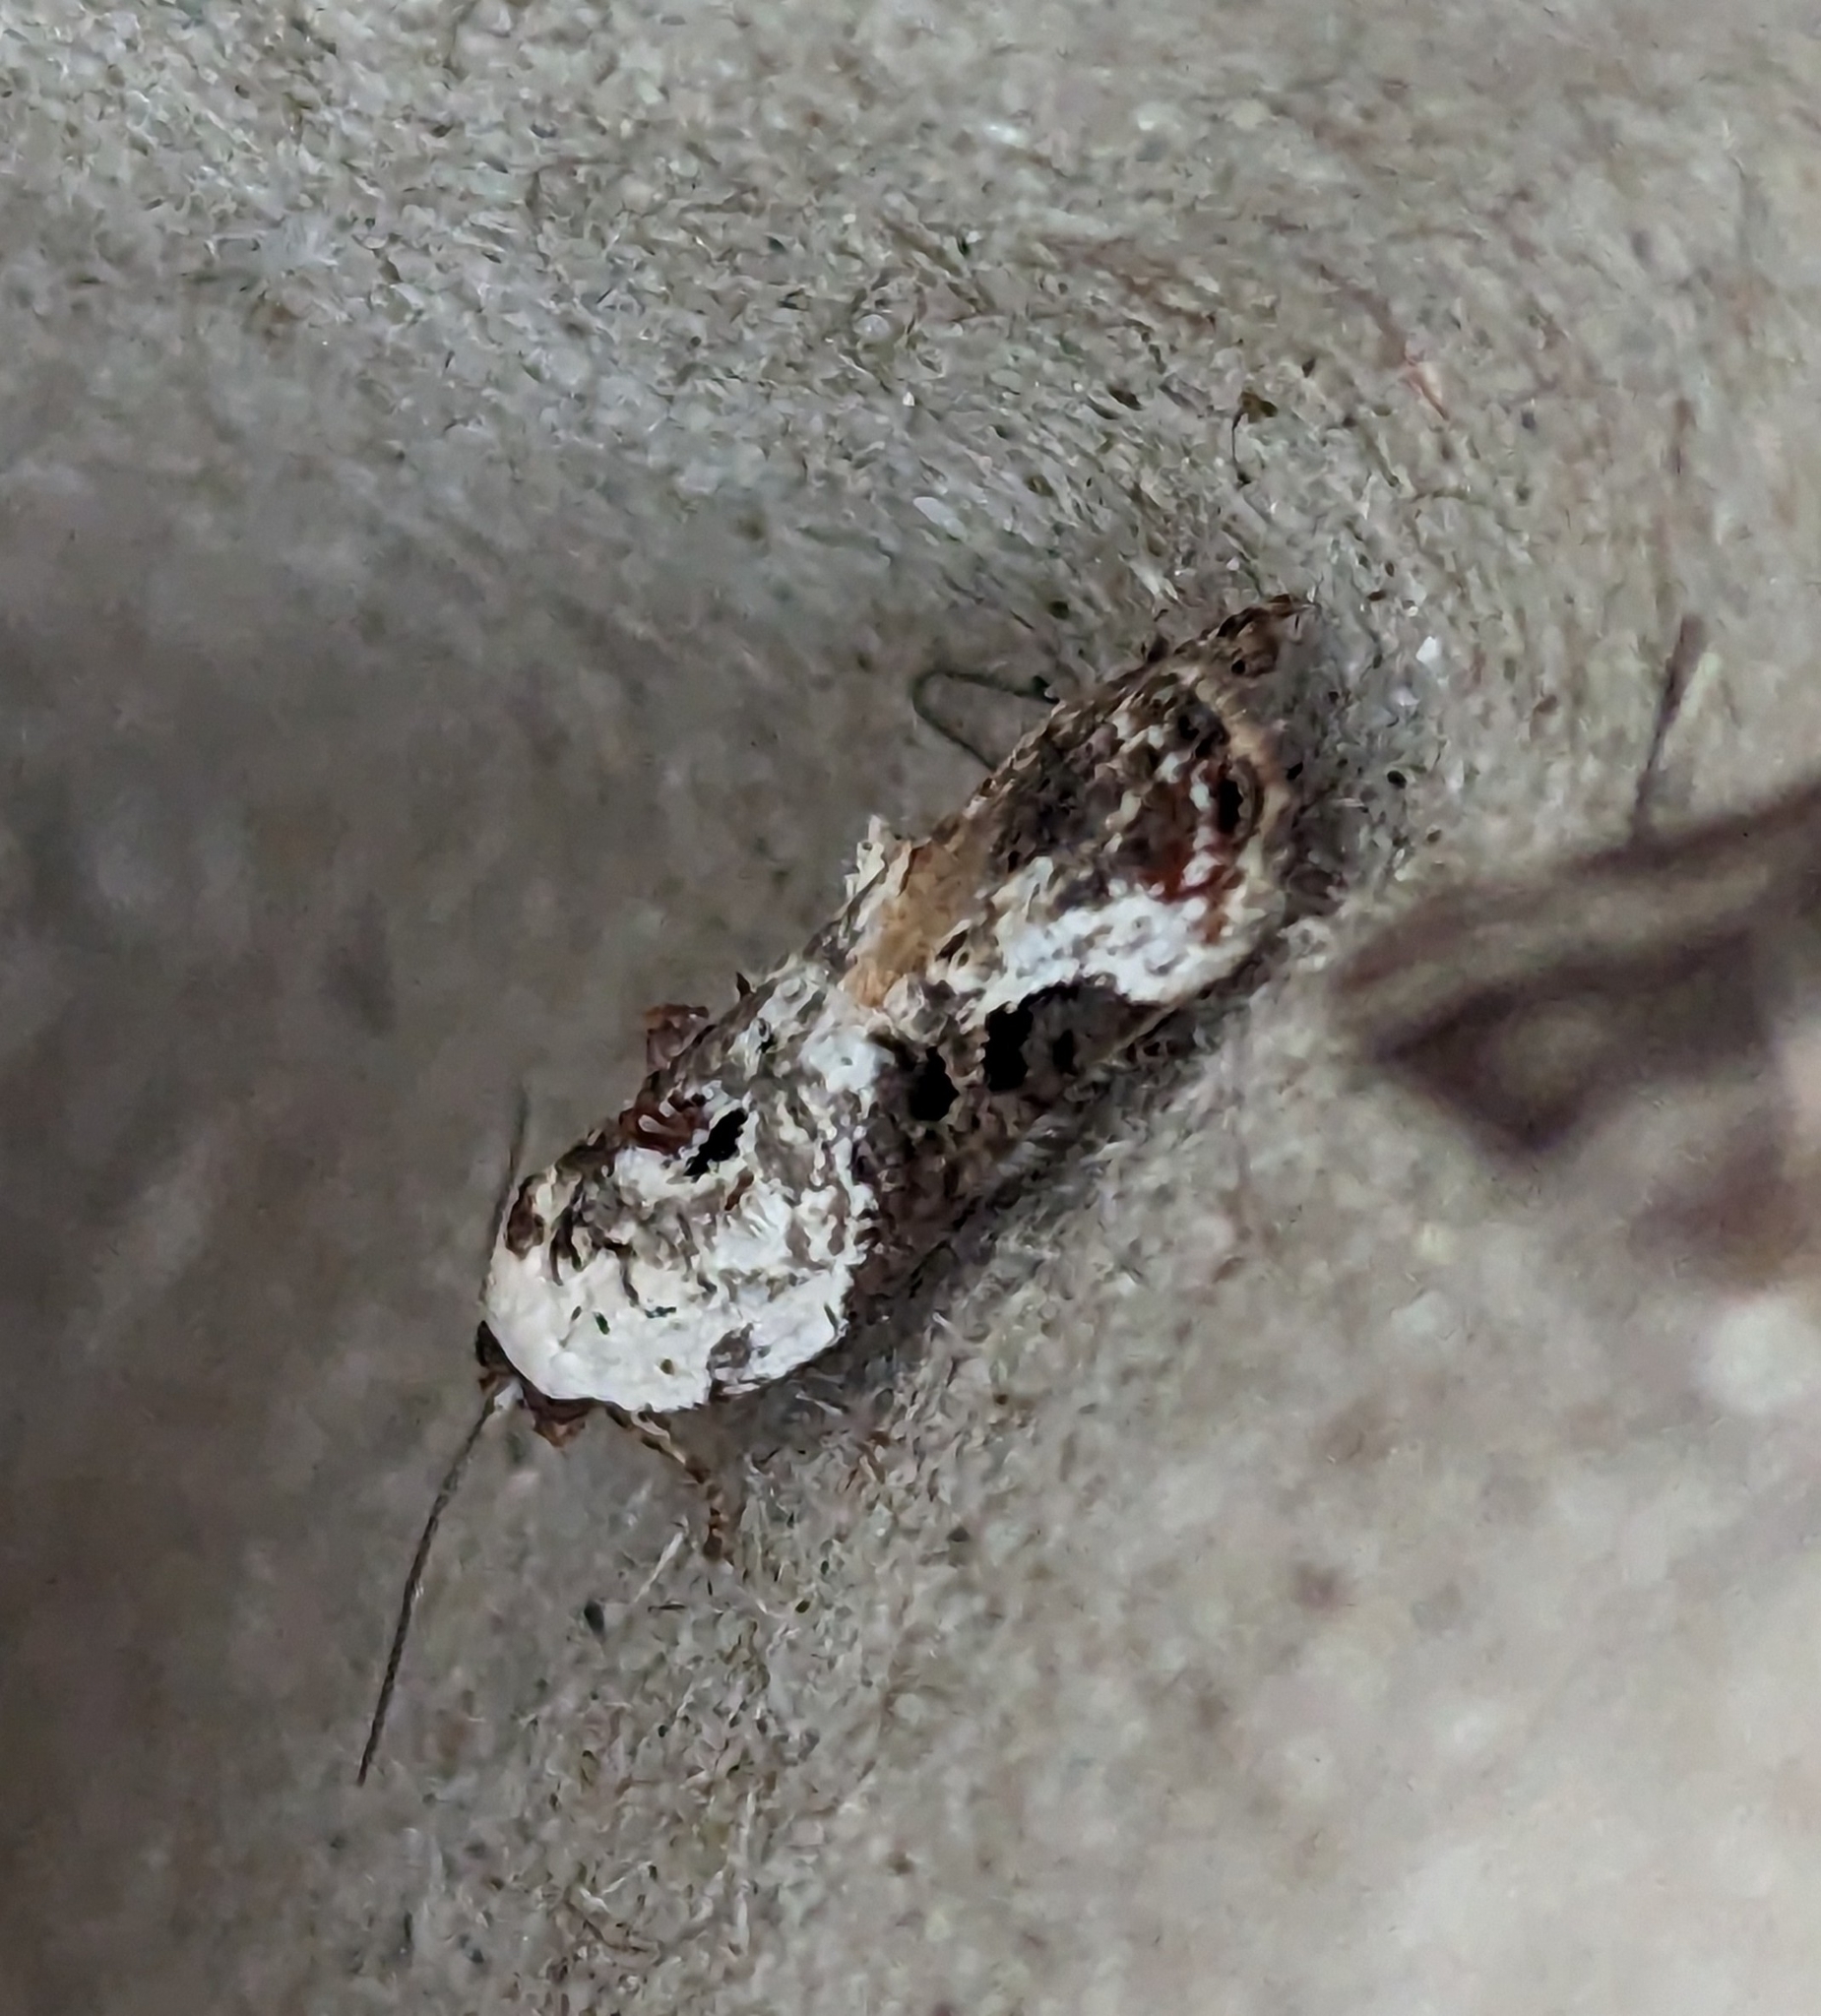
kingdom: Animalia
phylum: Arthropoda
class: Insecta
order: Lepidoptera
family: Tortricidae
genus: Acleris
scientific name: Acleris nivisellana
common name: Snowy-shouldered acleris moth
